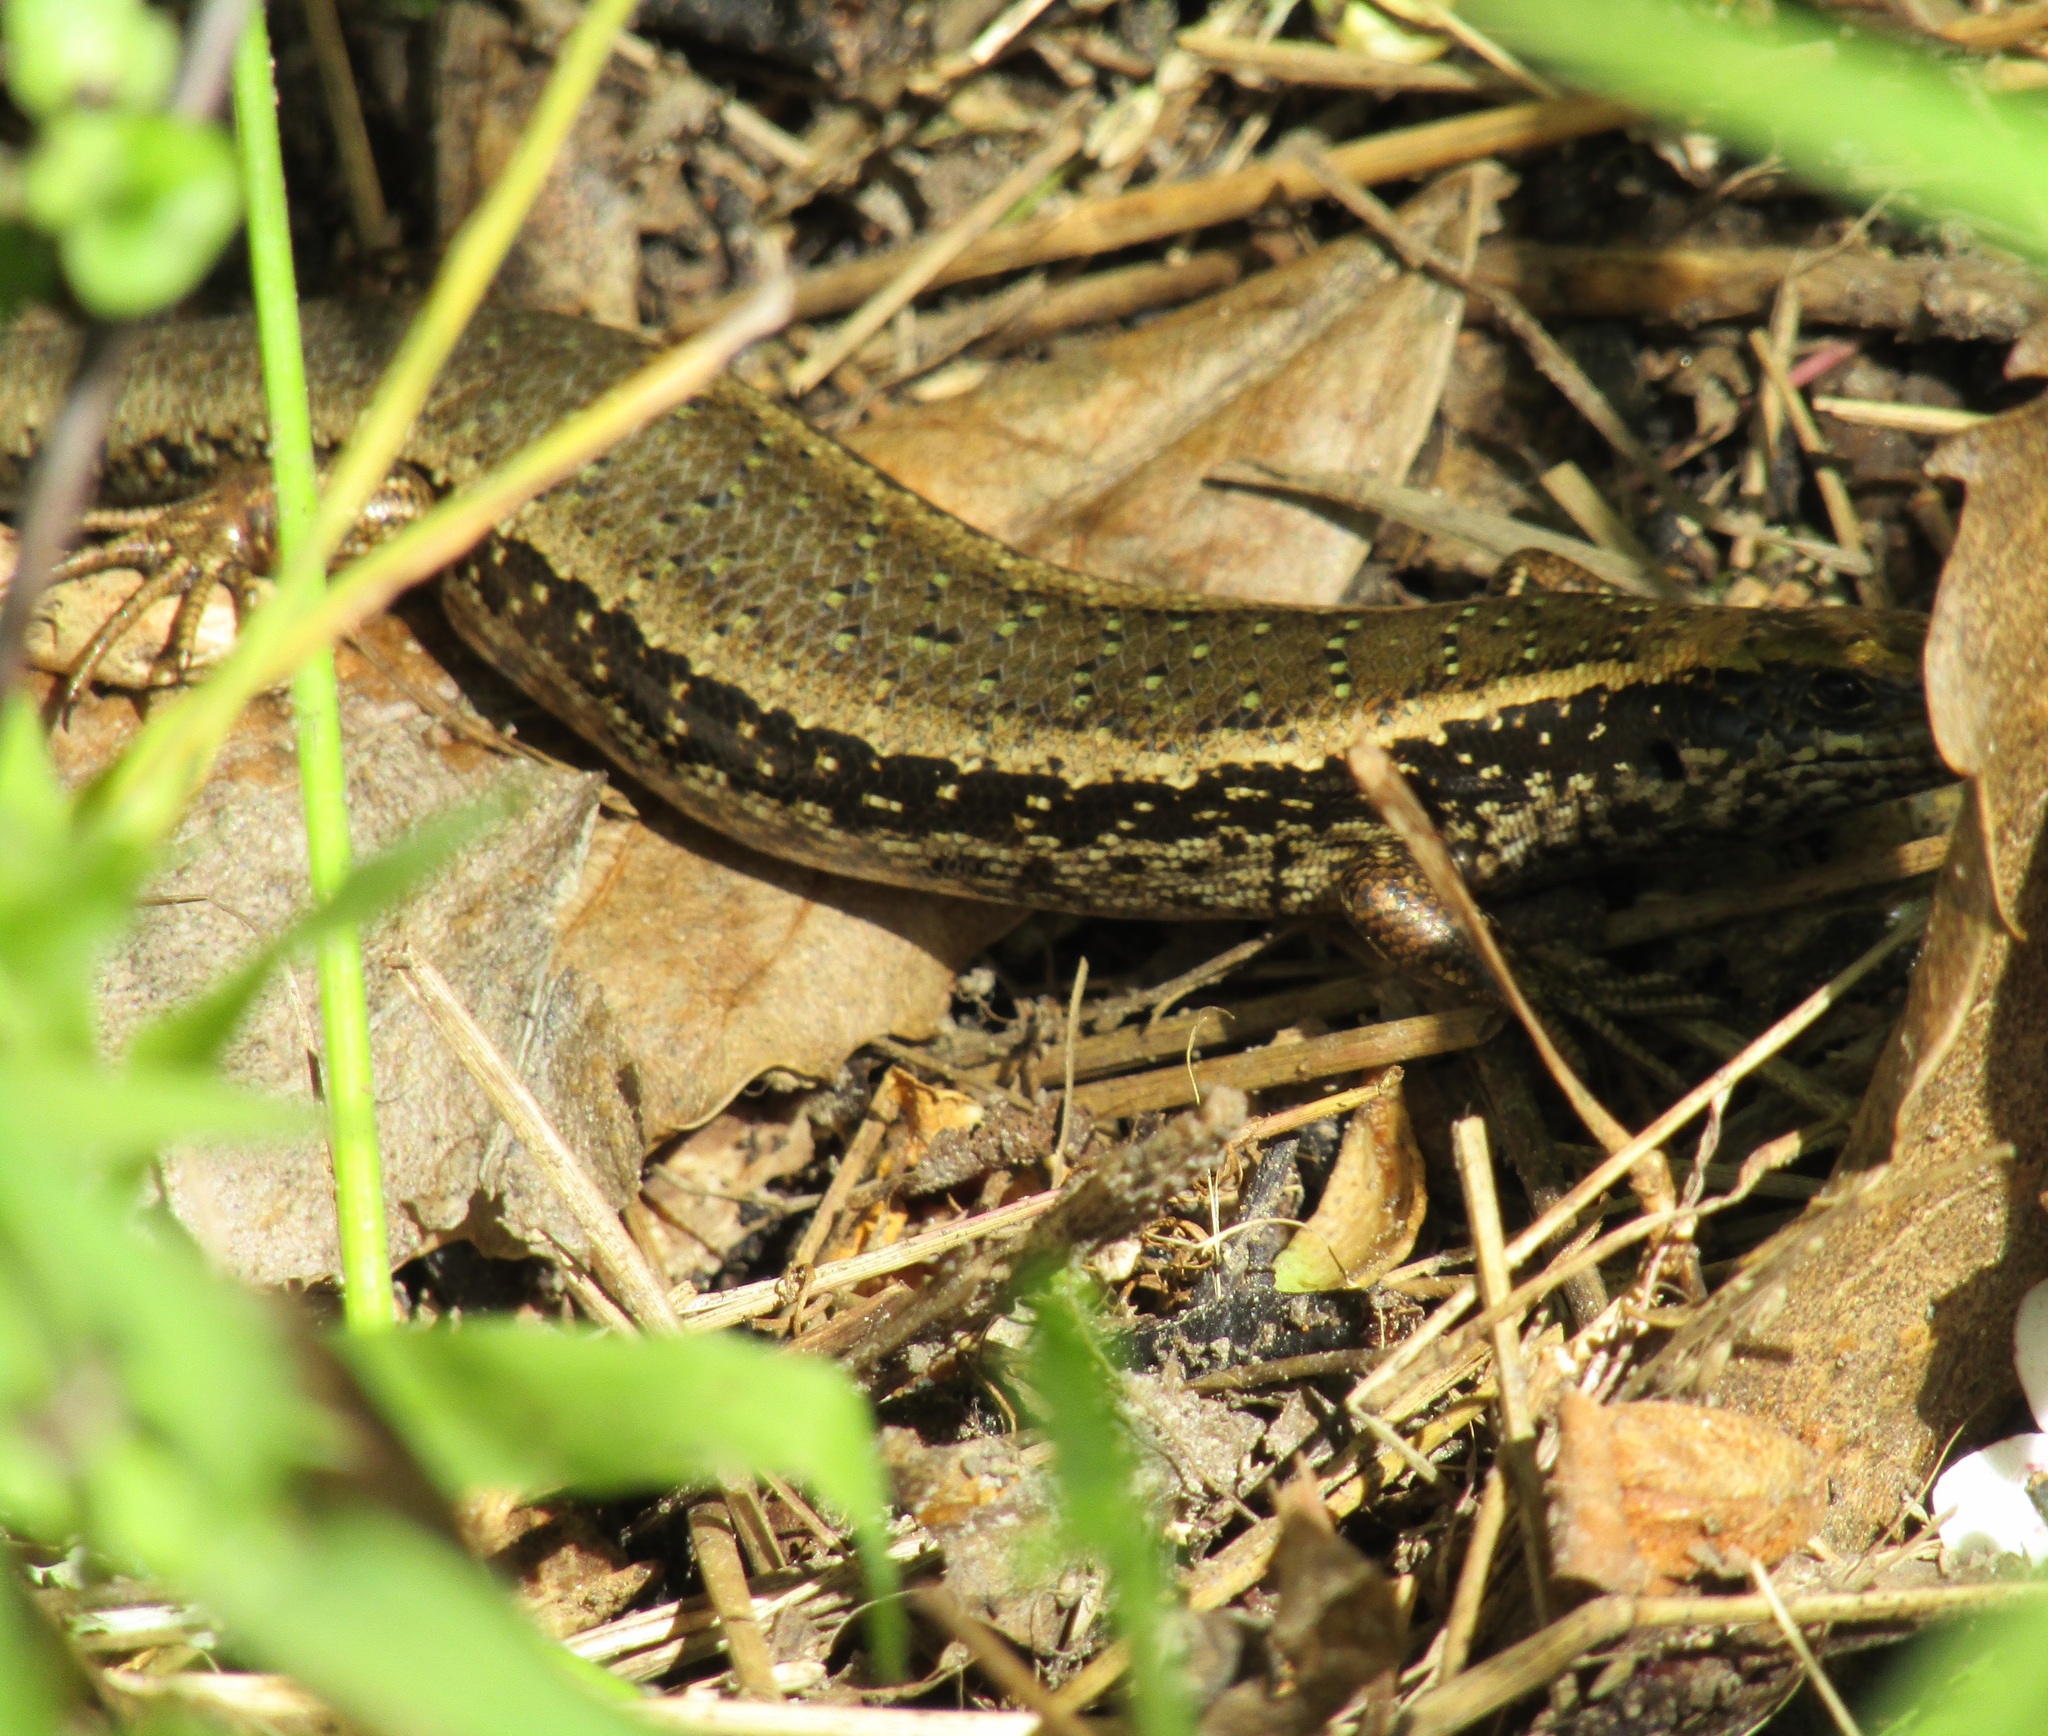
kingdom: Animalia
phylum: Chordata
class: Squamata
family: Scincidae
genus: Oligosoma
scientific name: Oligosoma kokowai
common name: Northern spotted skink
